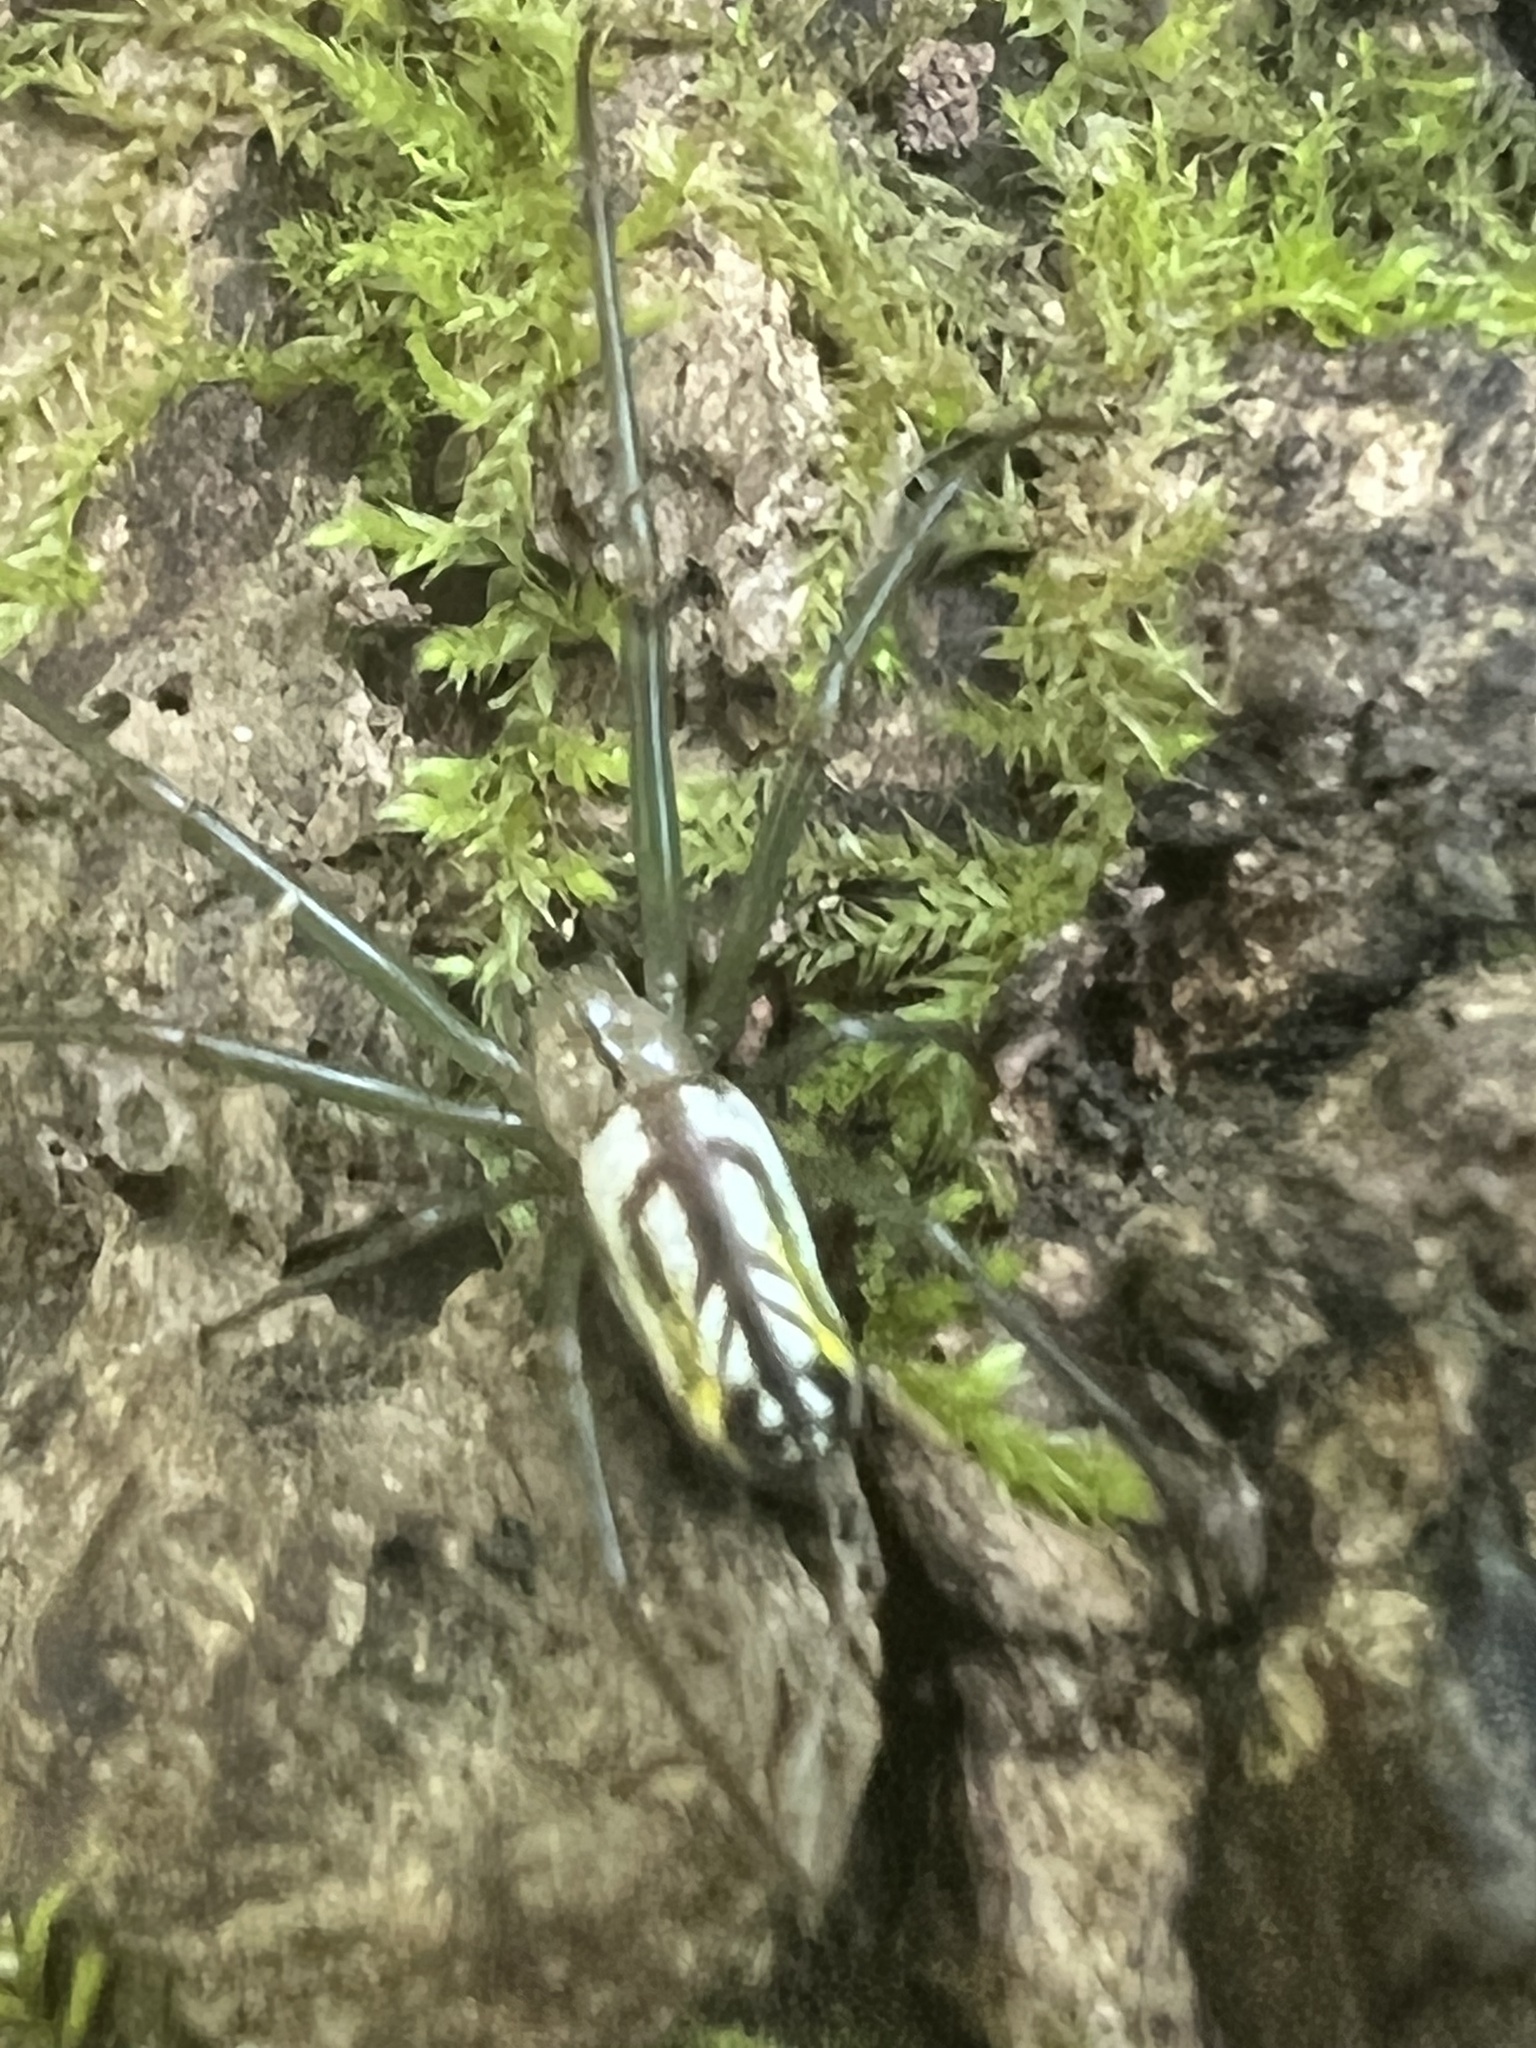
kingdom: Animalia
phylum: Arthropoda
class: Arachnida
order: Araneae
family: Tetragnathidae
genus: Leucauge
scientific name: Leucauge venusta
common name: Longjawed orb weavers
